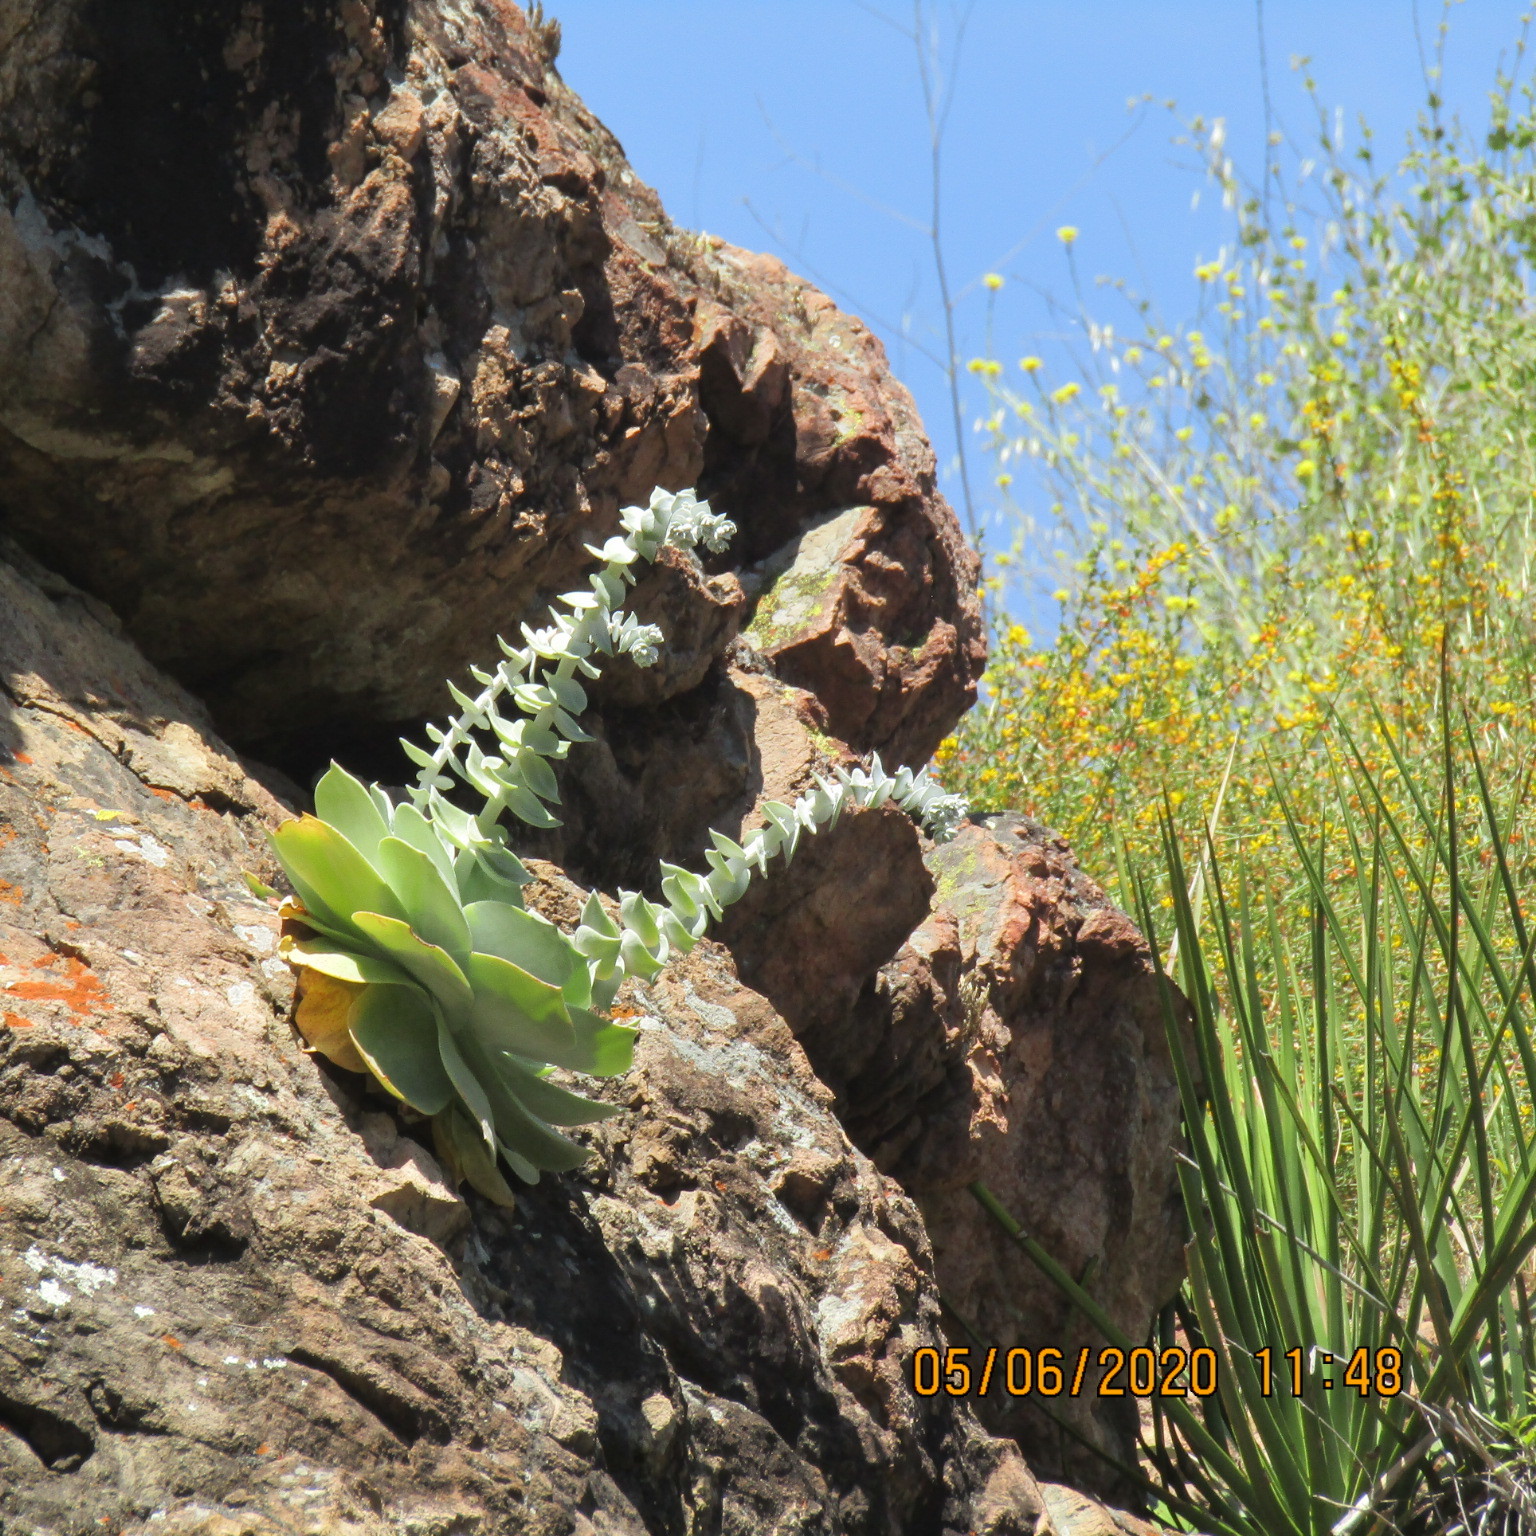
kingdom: Plantae
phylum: Tracheophyta
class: Magnoliopsida
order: Saxifragales
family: Crassulaceae
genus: Dudleya
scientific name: Dudleya pulverulenta
